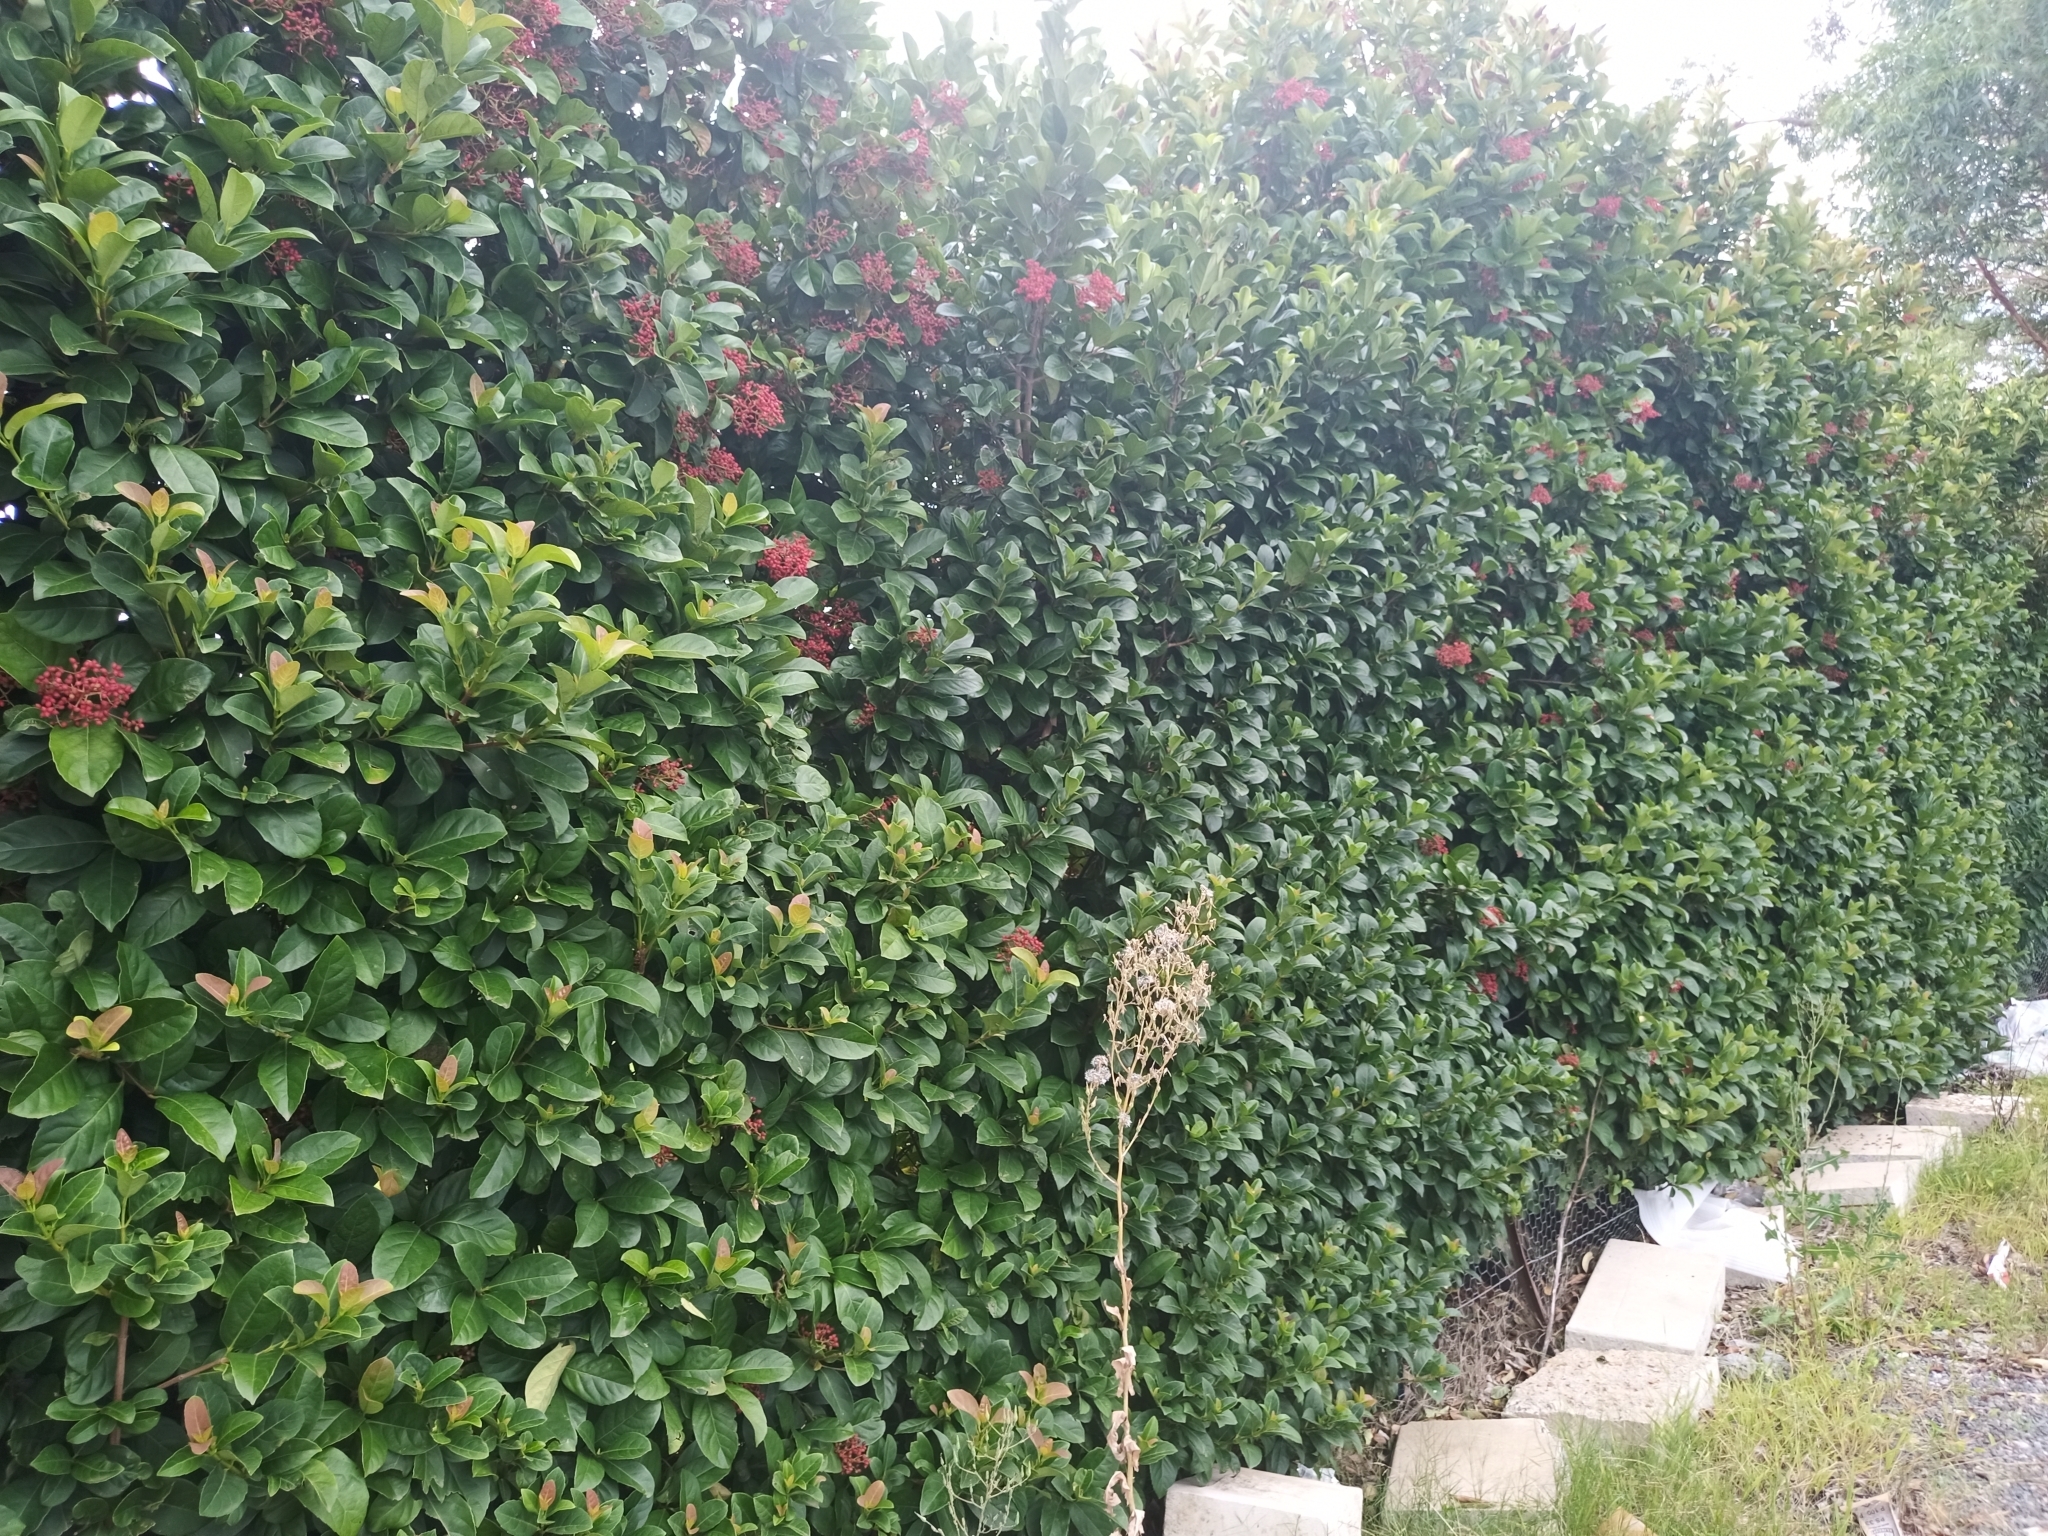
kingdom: Animalia
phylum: Chordata
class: Aves
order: Passeriformes
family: Sturnidae
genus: Acridotheres
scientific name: Acridotheres tristis
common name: Common myna
